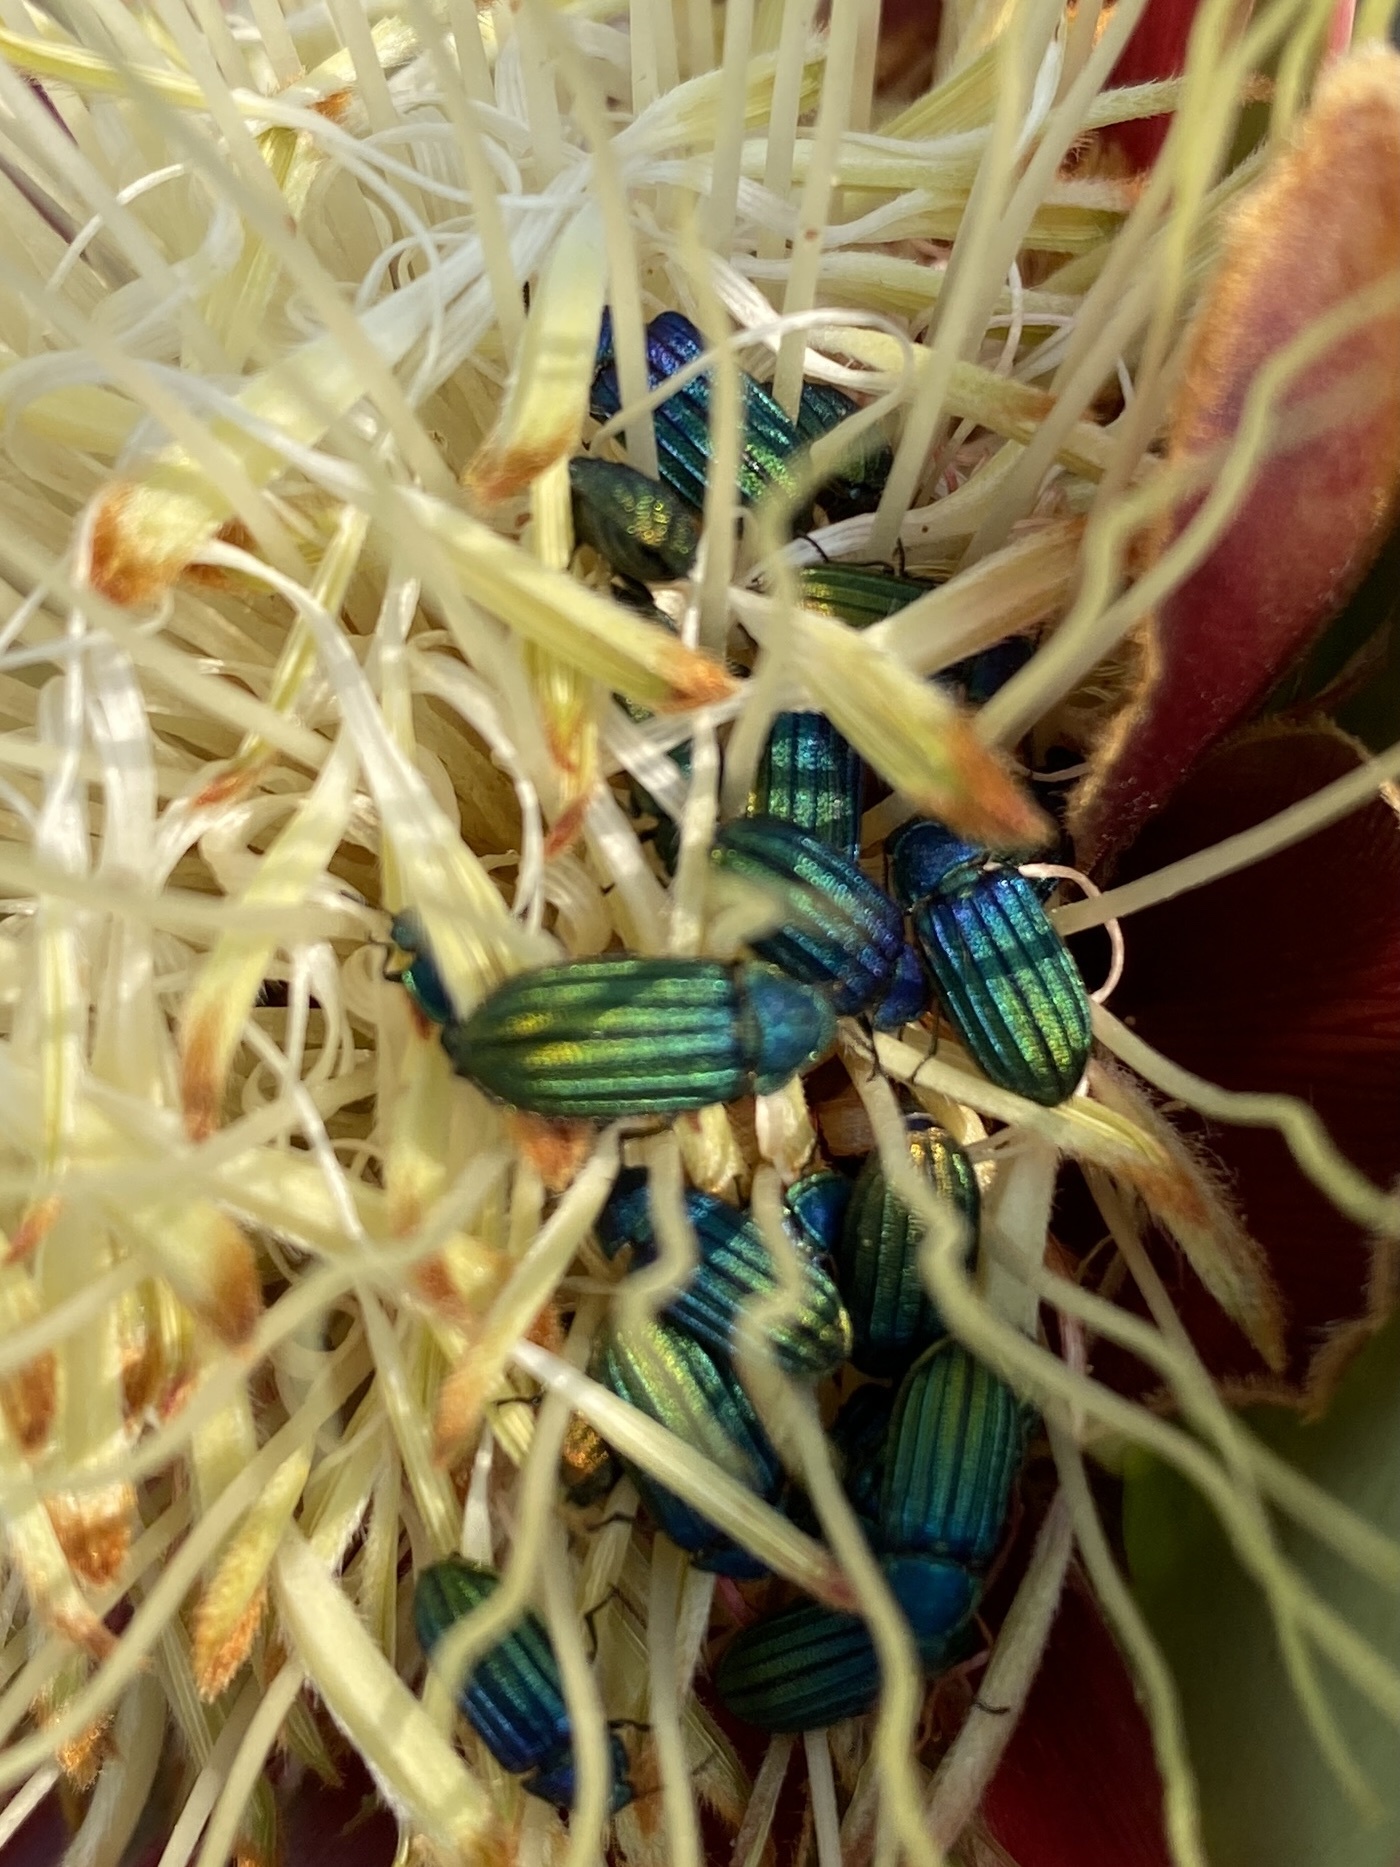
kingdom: Plantae
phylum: Tracheophyta
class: Magnoliopsida
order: Proteales
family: Proteaceae
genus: Protea
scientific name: Protea glabra
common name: Chestnut sugarbush
